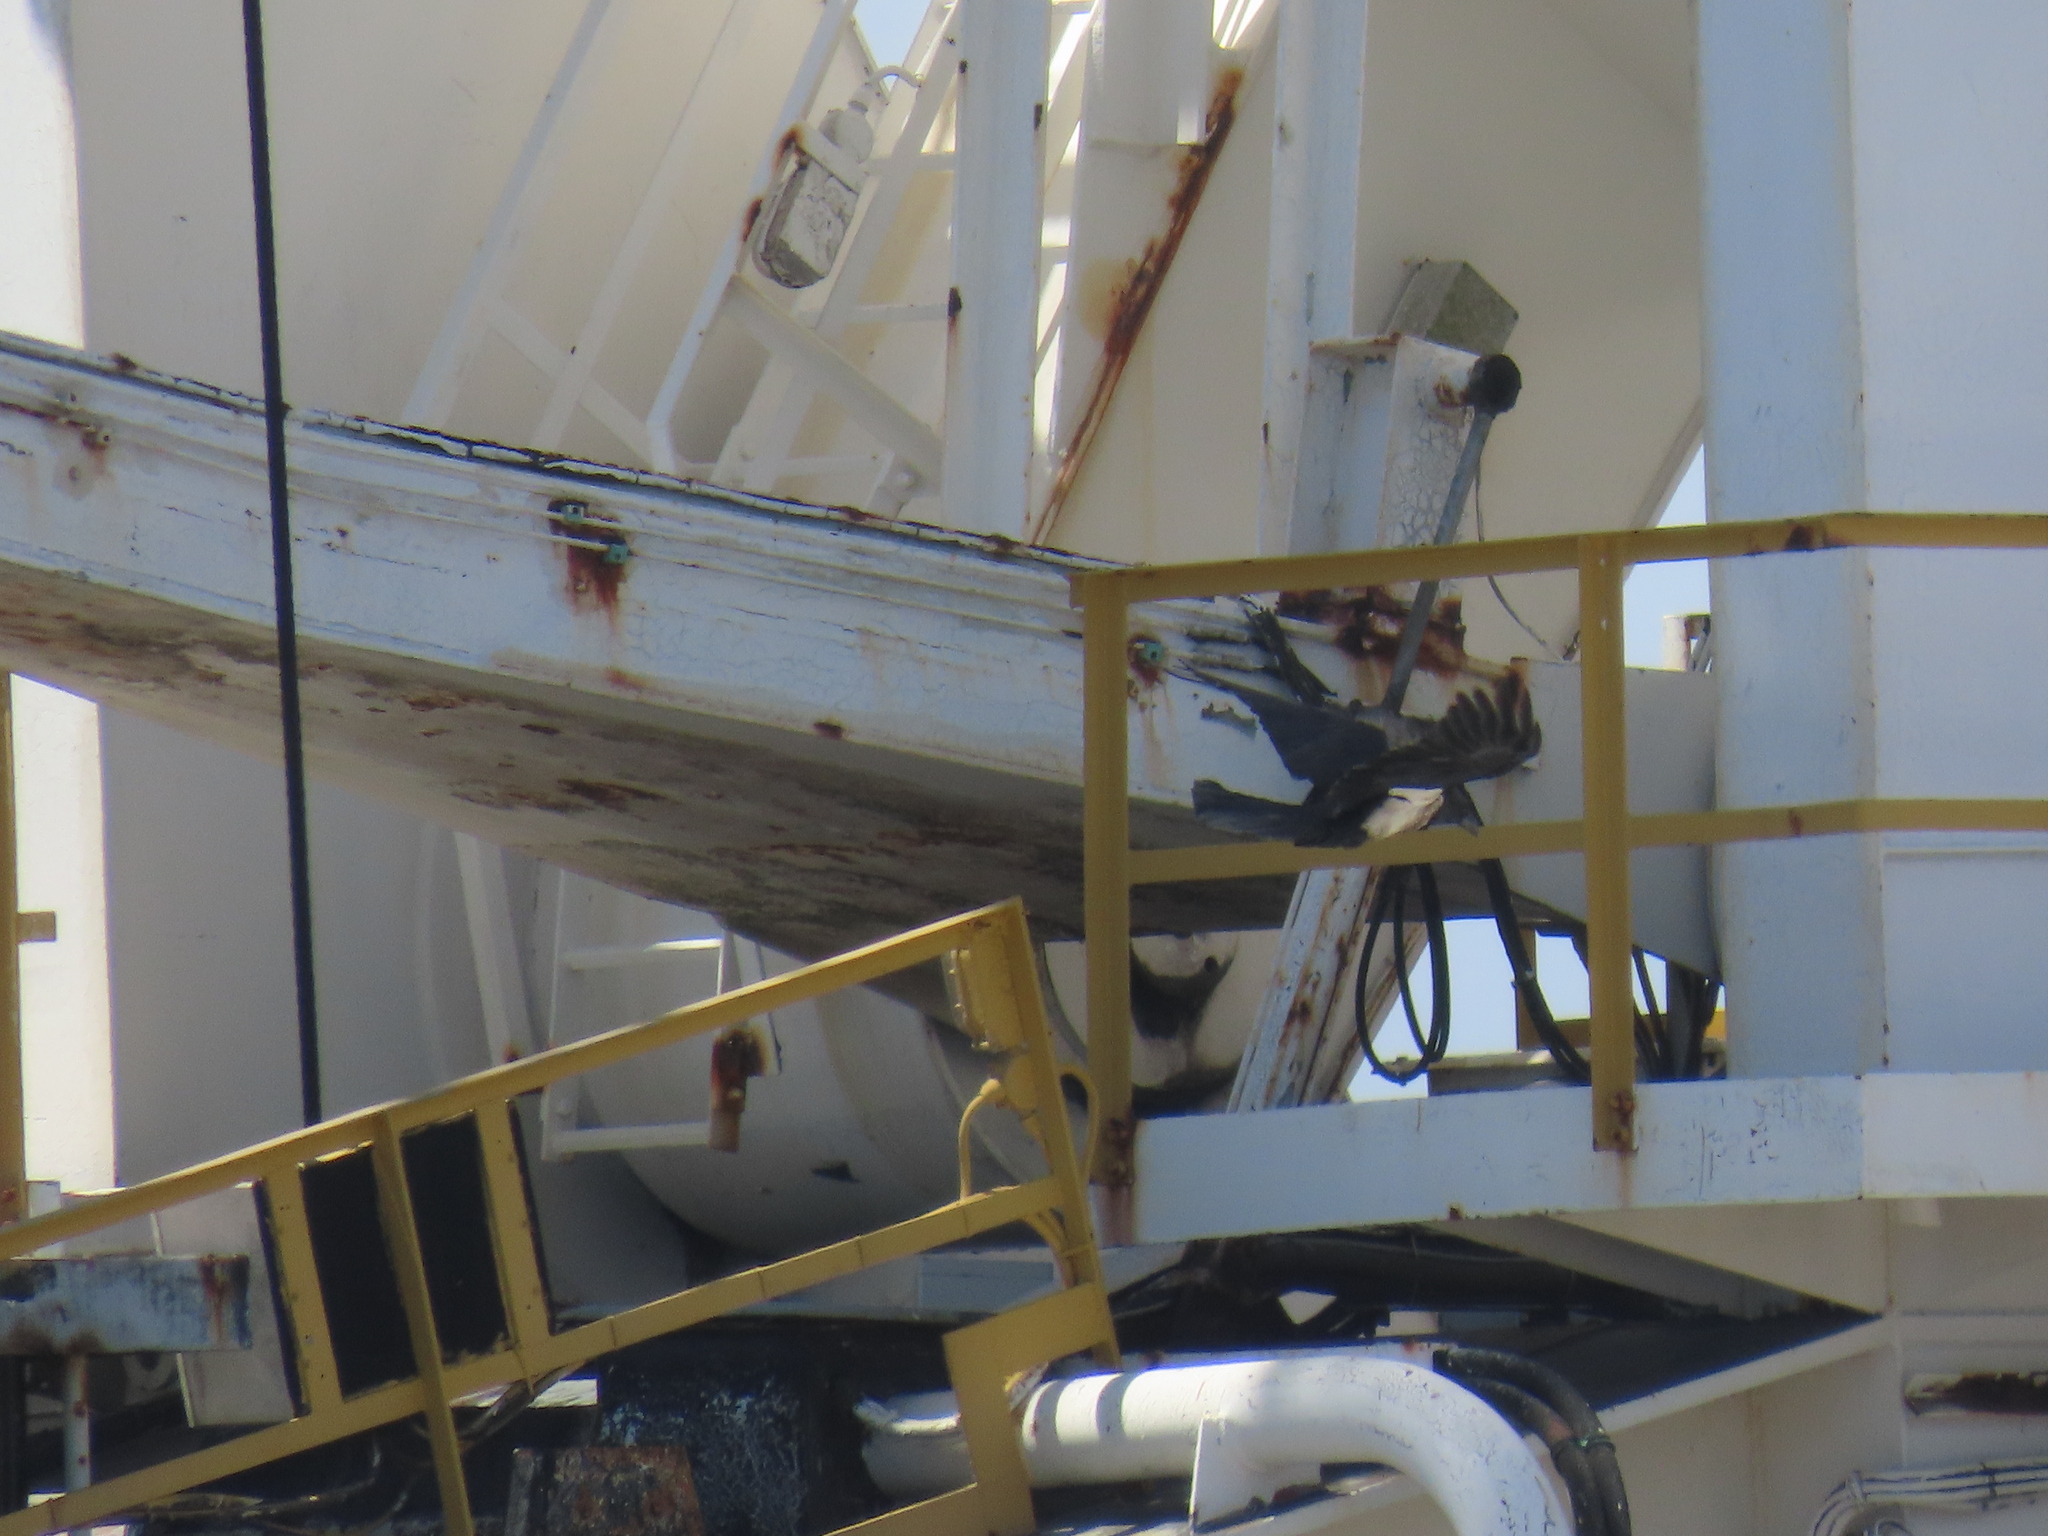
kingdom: Animalia
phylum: Chordata
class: Aves
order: Passeriformes
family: Corvidae
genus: Corvus
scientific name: Corvus albus
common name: Pied crow
